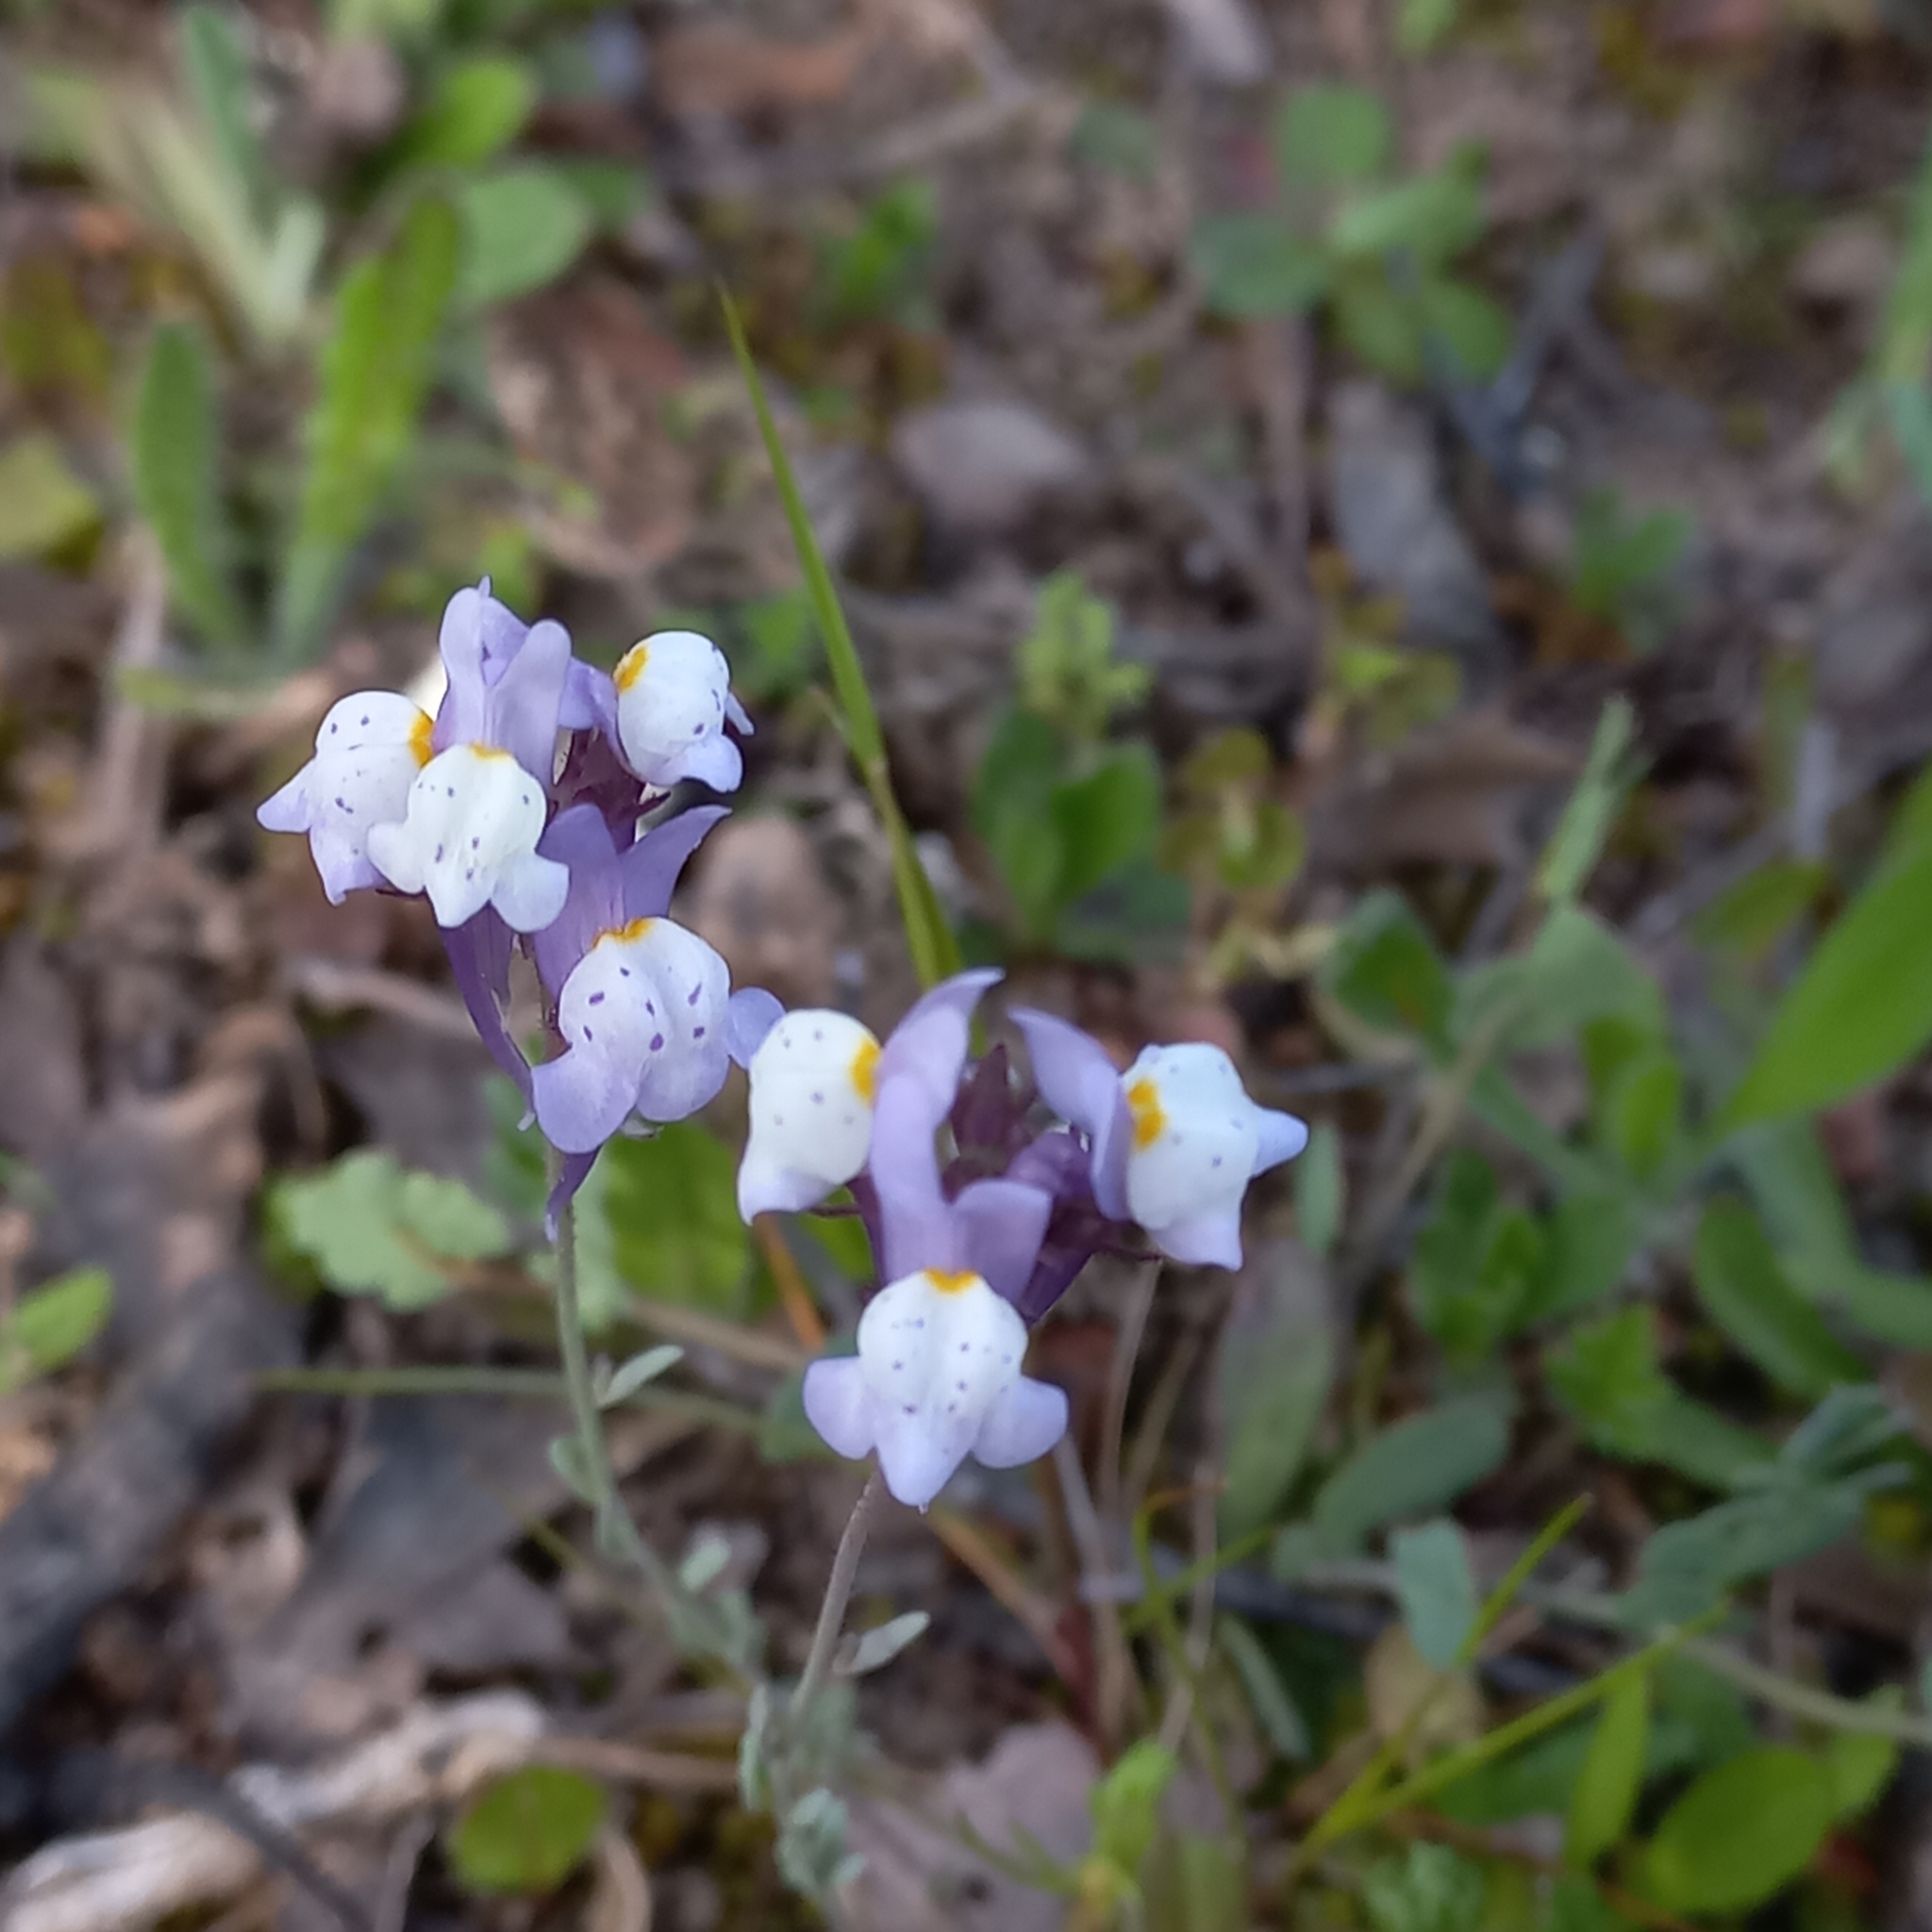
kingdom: Plantae
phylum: Tracheophyta
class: Magnoliopsida
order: Lamiales
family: Plantaginaceae
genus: Linaria
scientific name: Linaria amethystea
